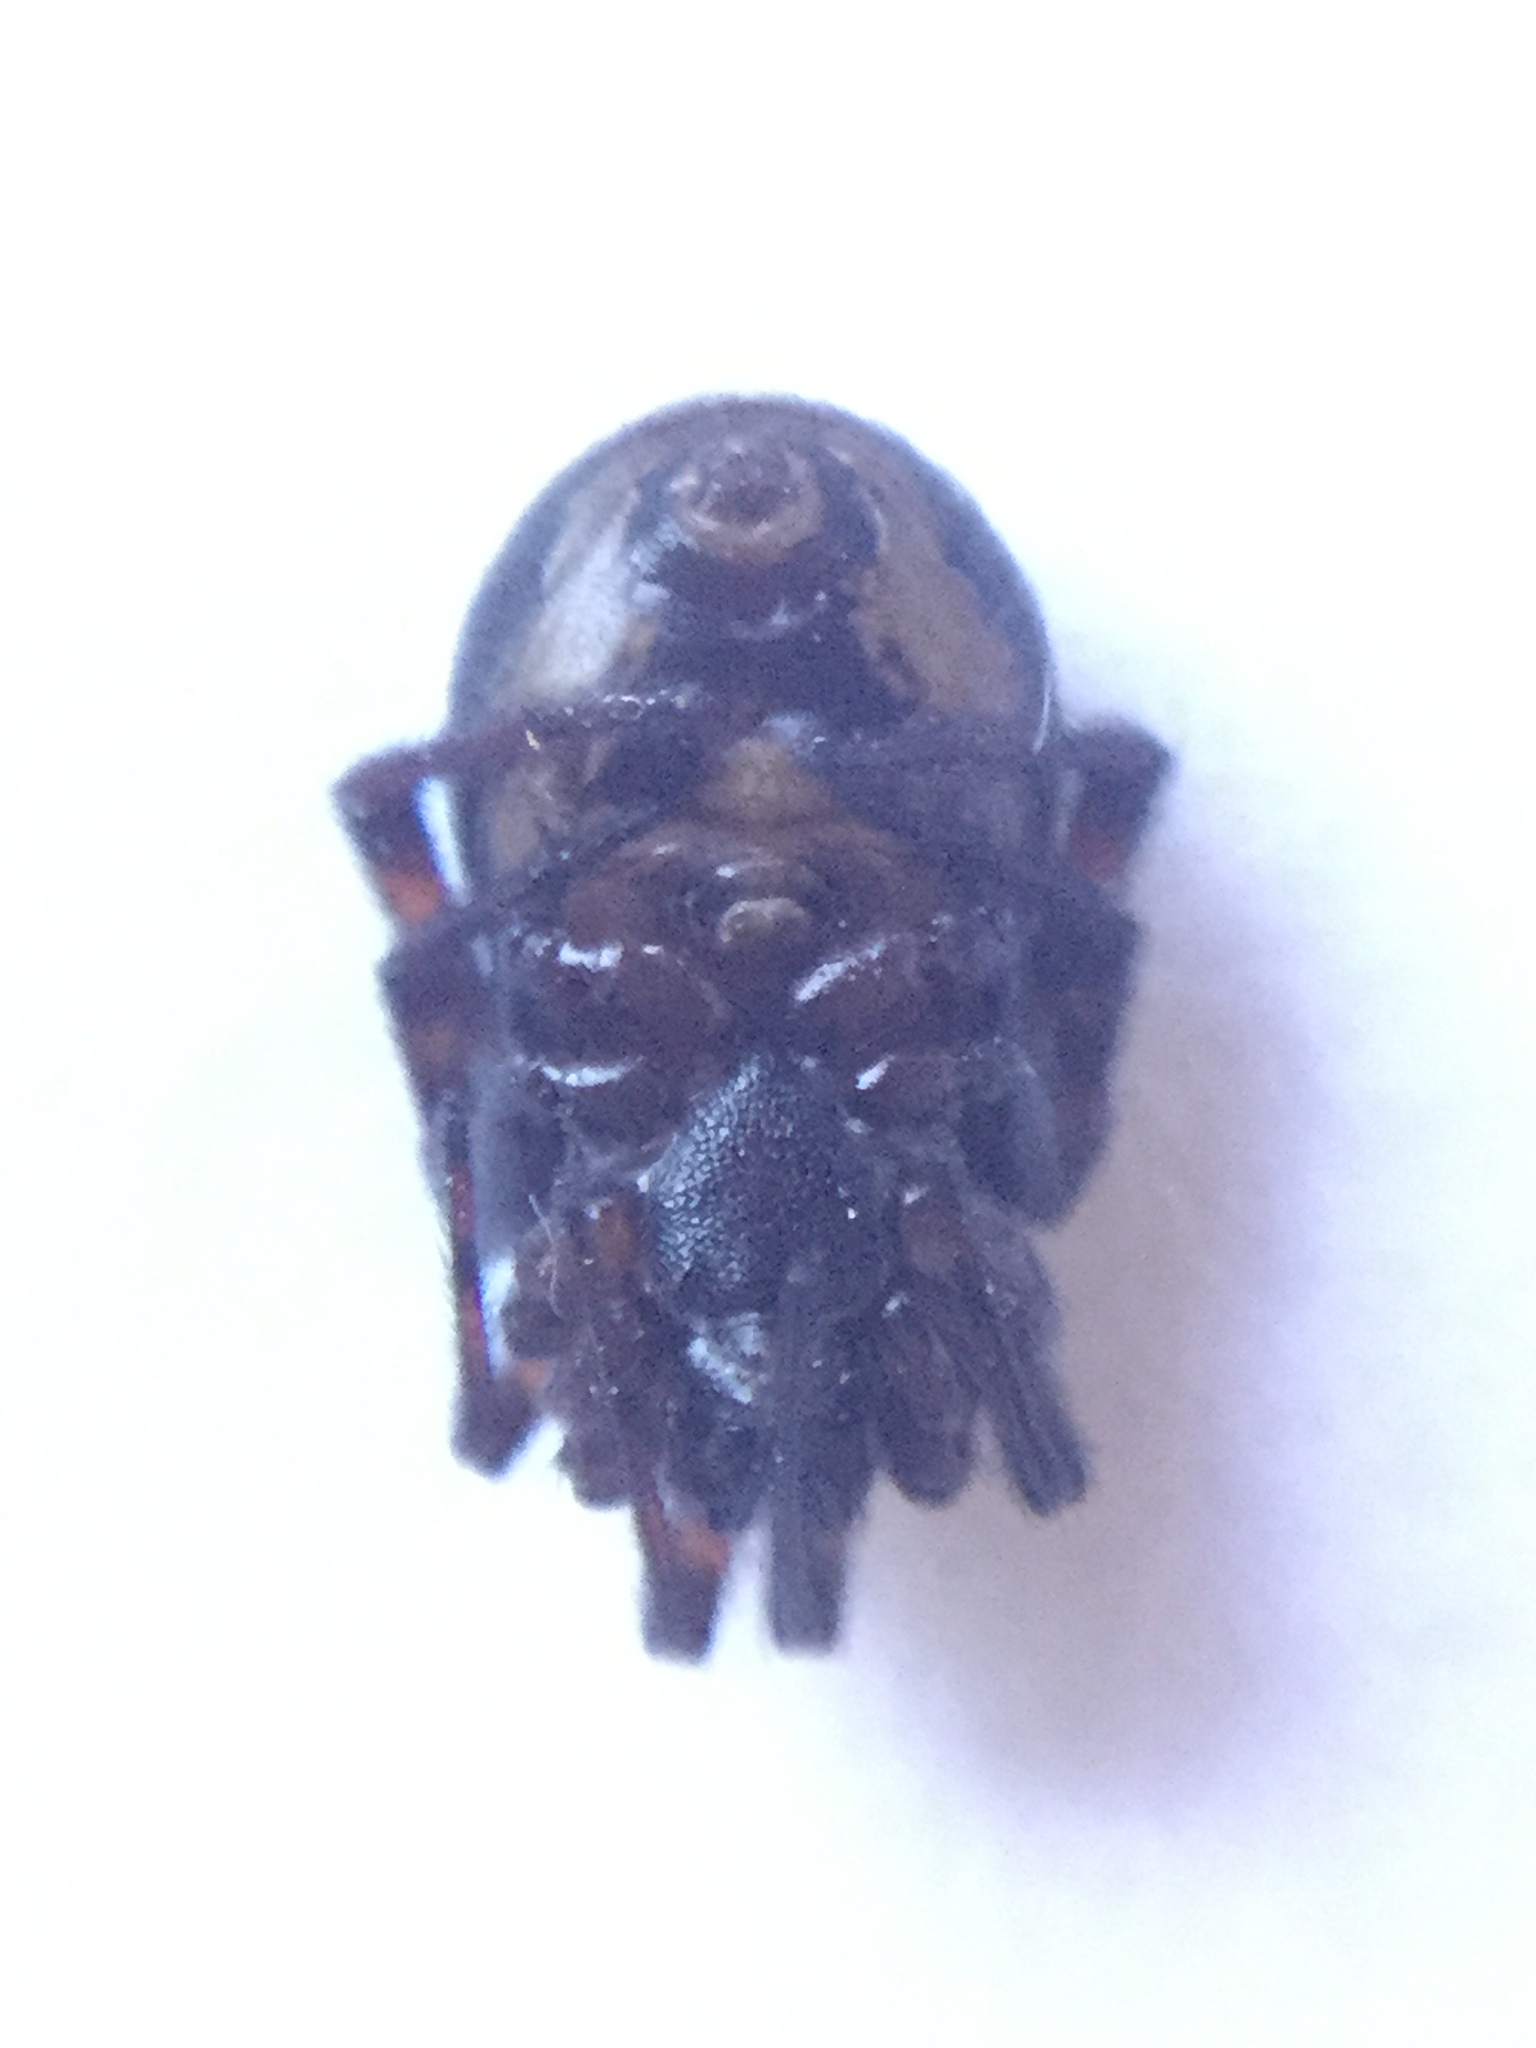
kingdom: Animalia
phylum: Arthropoda
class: Arachnida
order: Araneae
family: Theridiidae
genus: Steatoda
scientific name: Steatoda borealis
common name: Boreal combfoot
